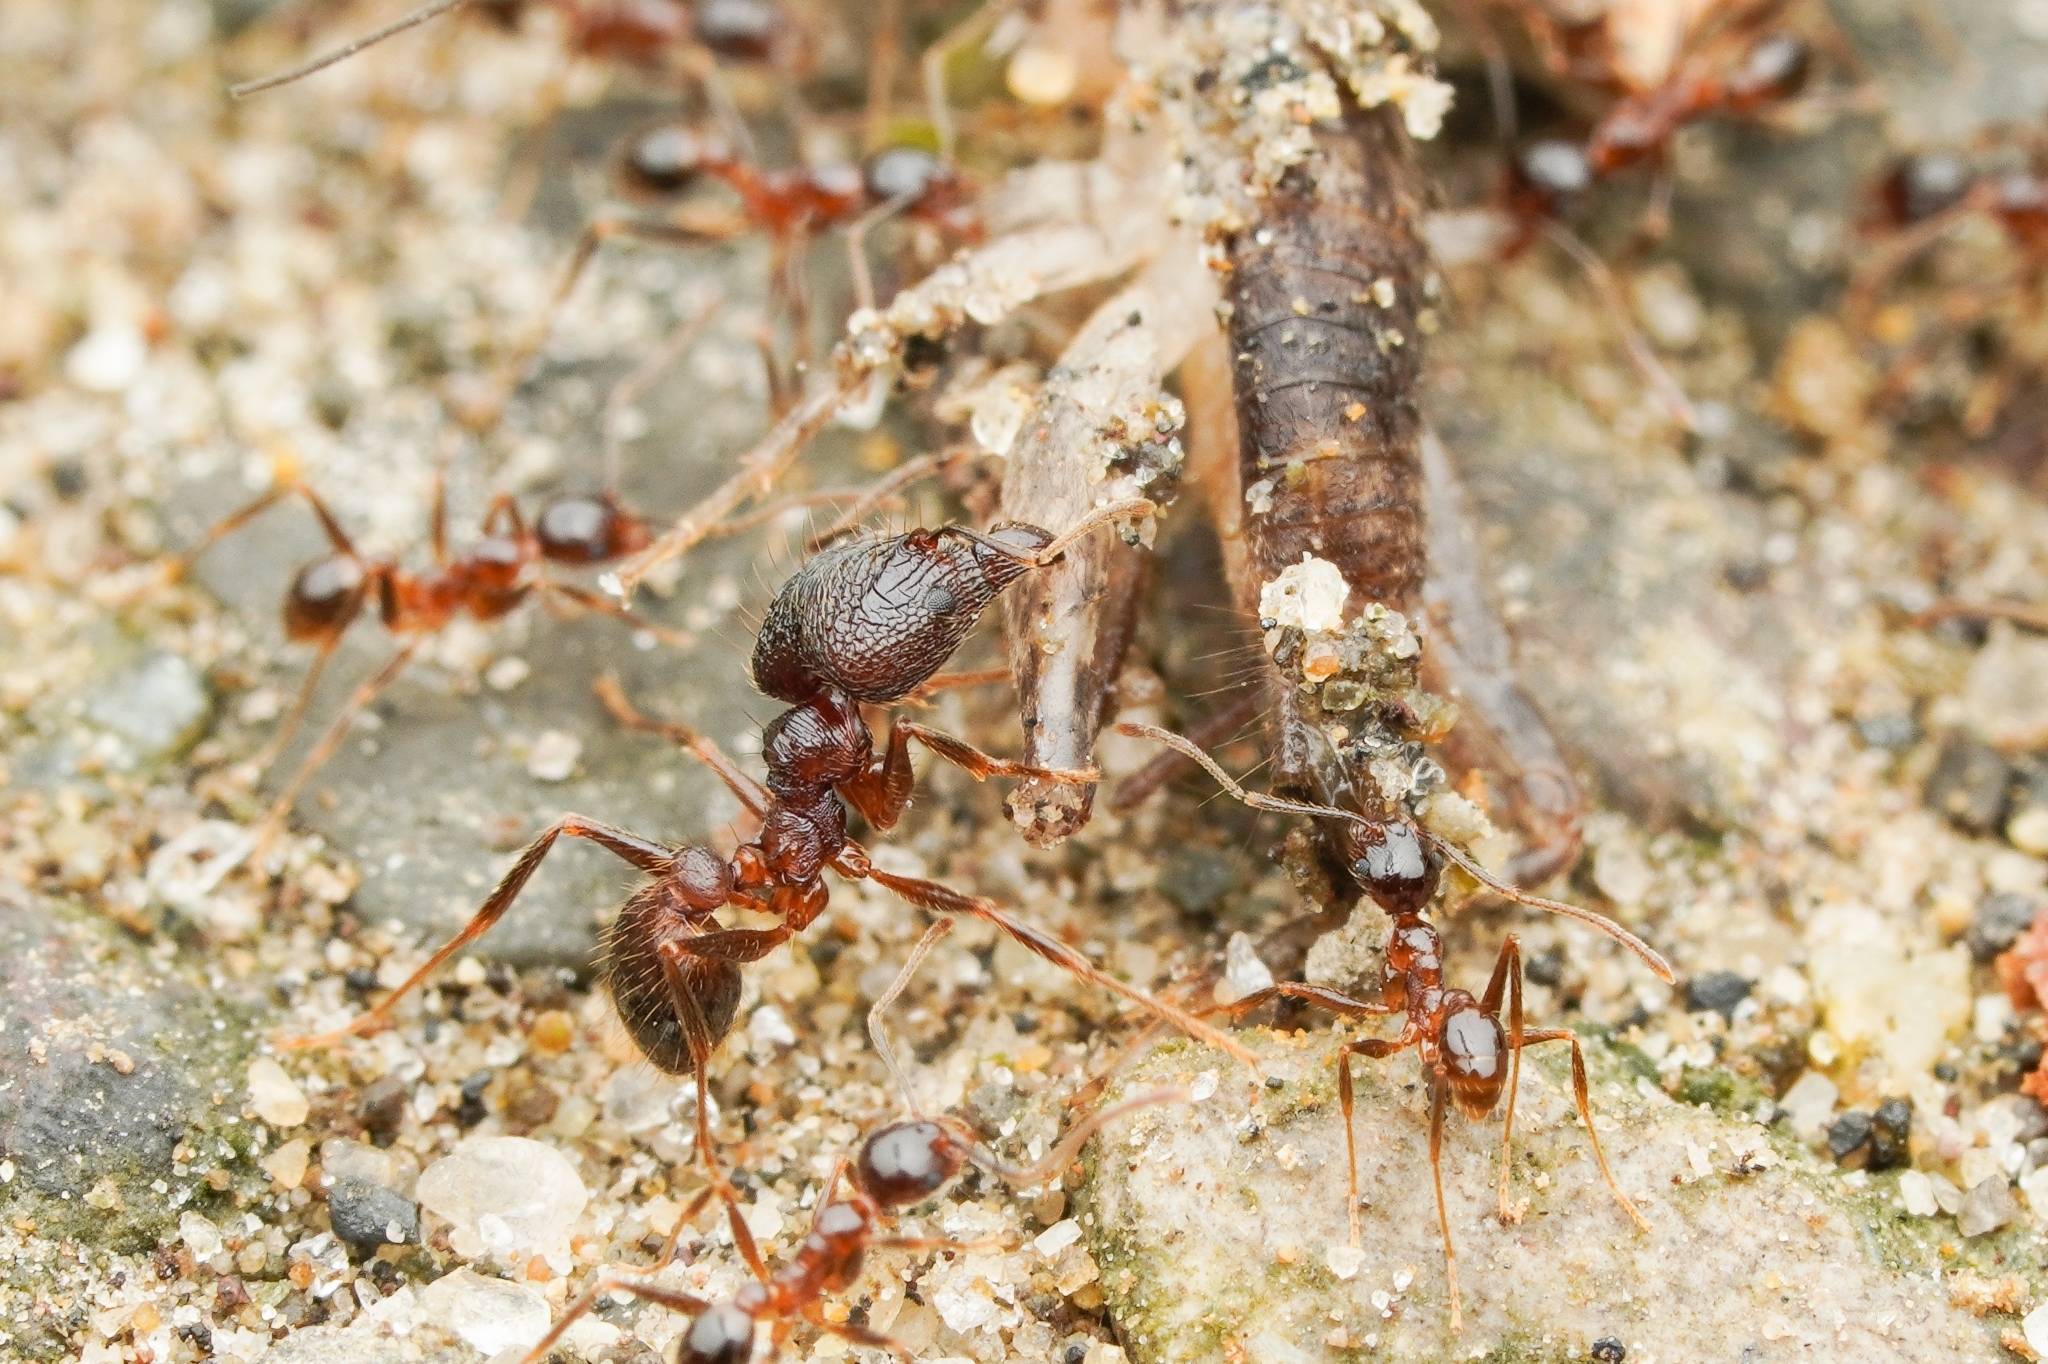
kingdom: Animalia
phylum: Arthropoda
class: Insecta
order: Hymenoptera
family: Formicidae
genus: Pheidole
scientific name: Pheidole noda
